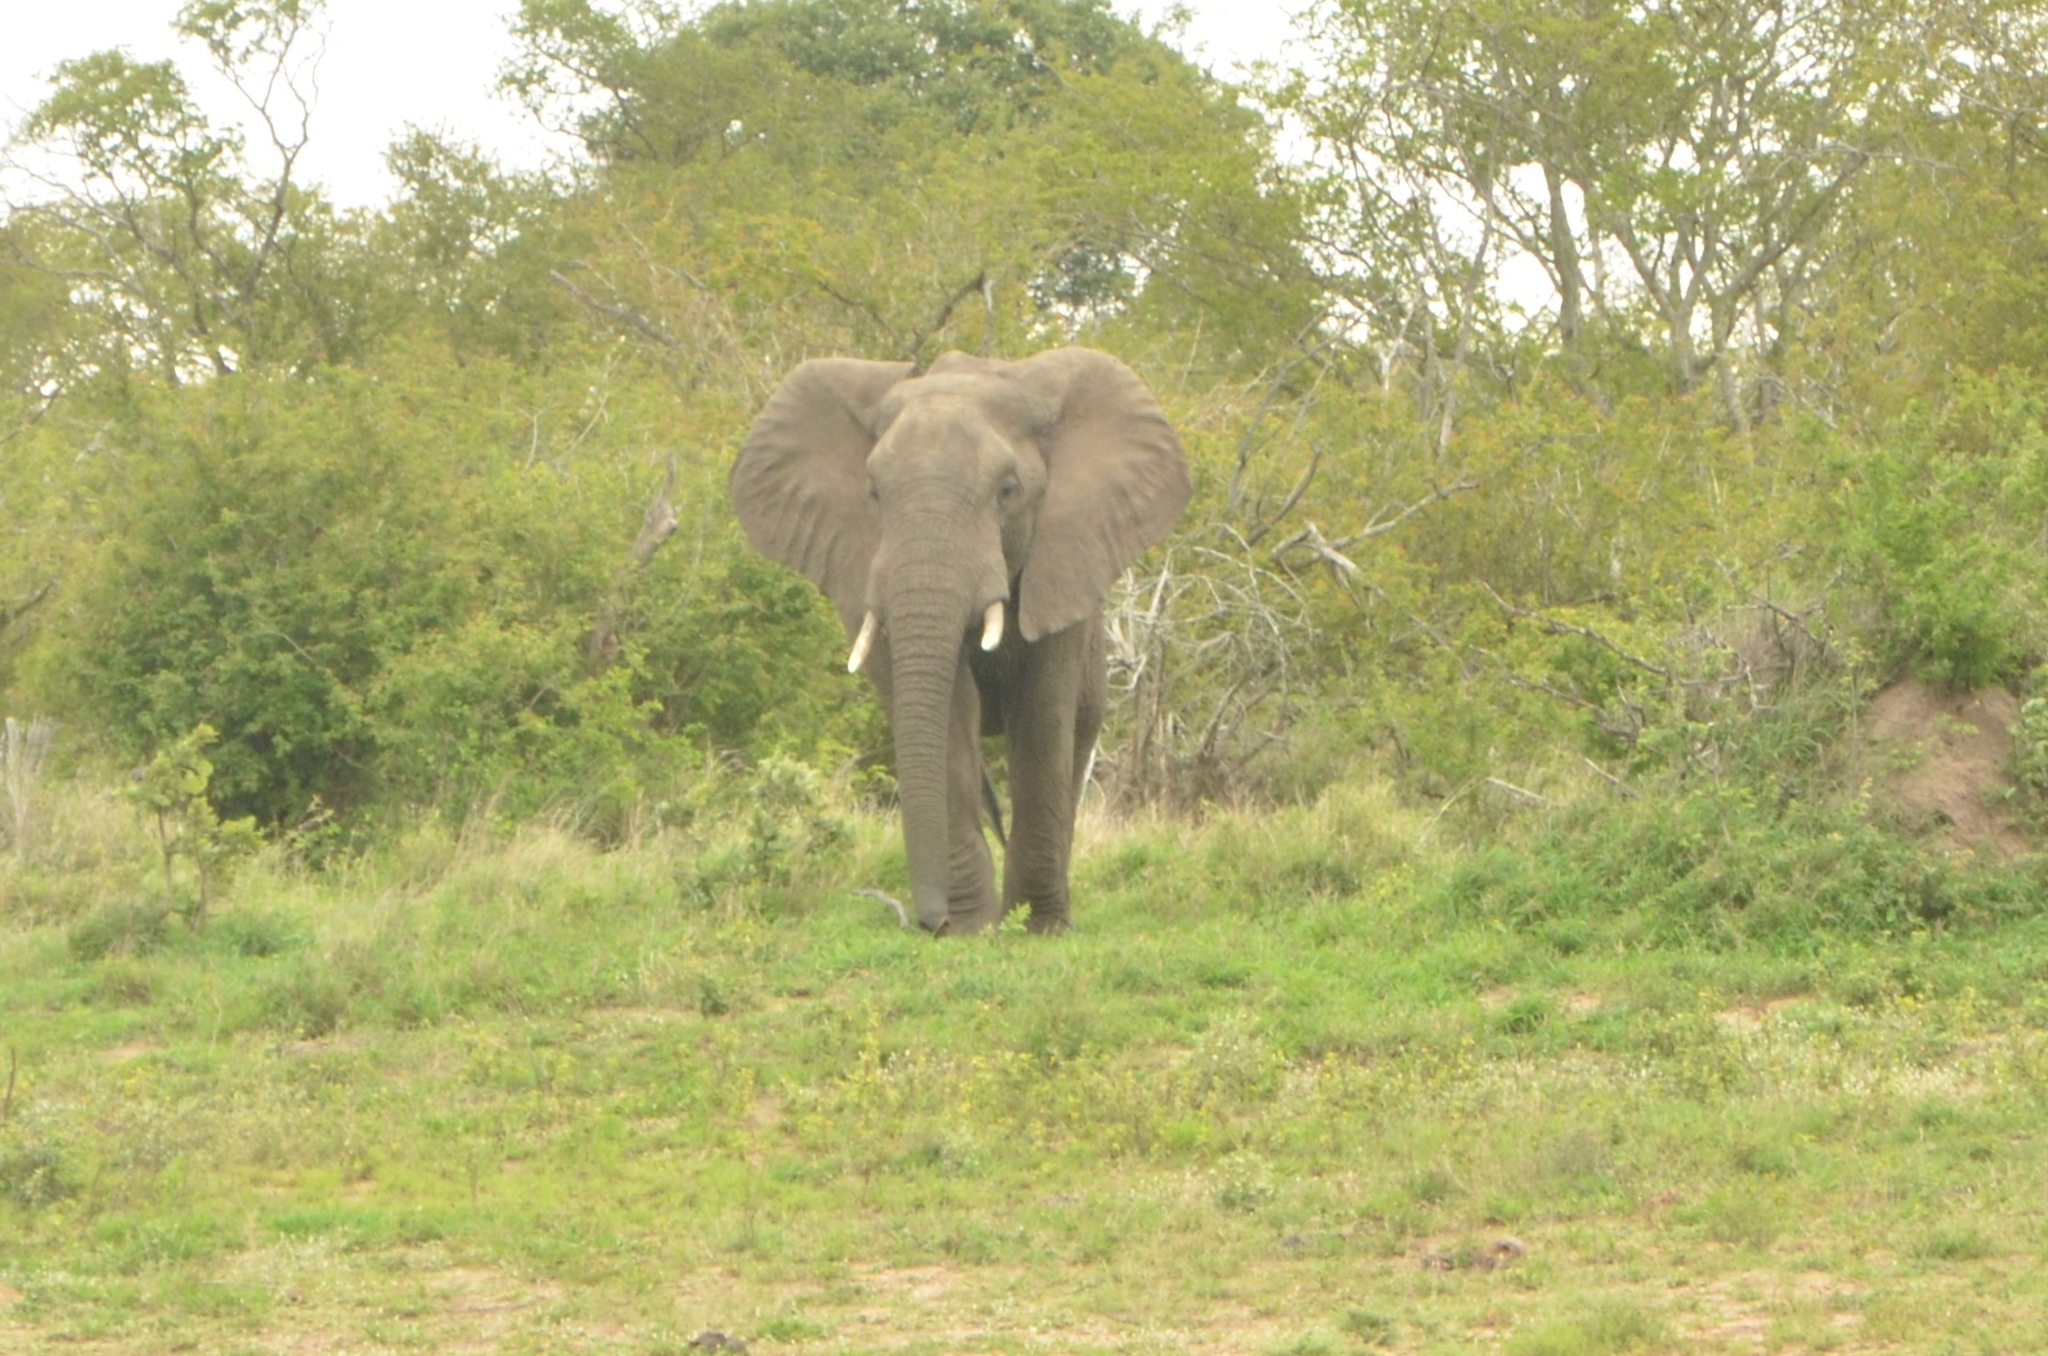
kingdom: Animalia
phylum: Chordata
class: Mammalia
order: Proboscidea
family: Elephantidae
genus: Loxodonta
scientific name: Loxodonta africana
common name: African elephant
